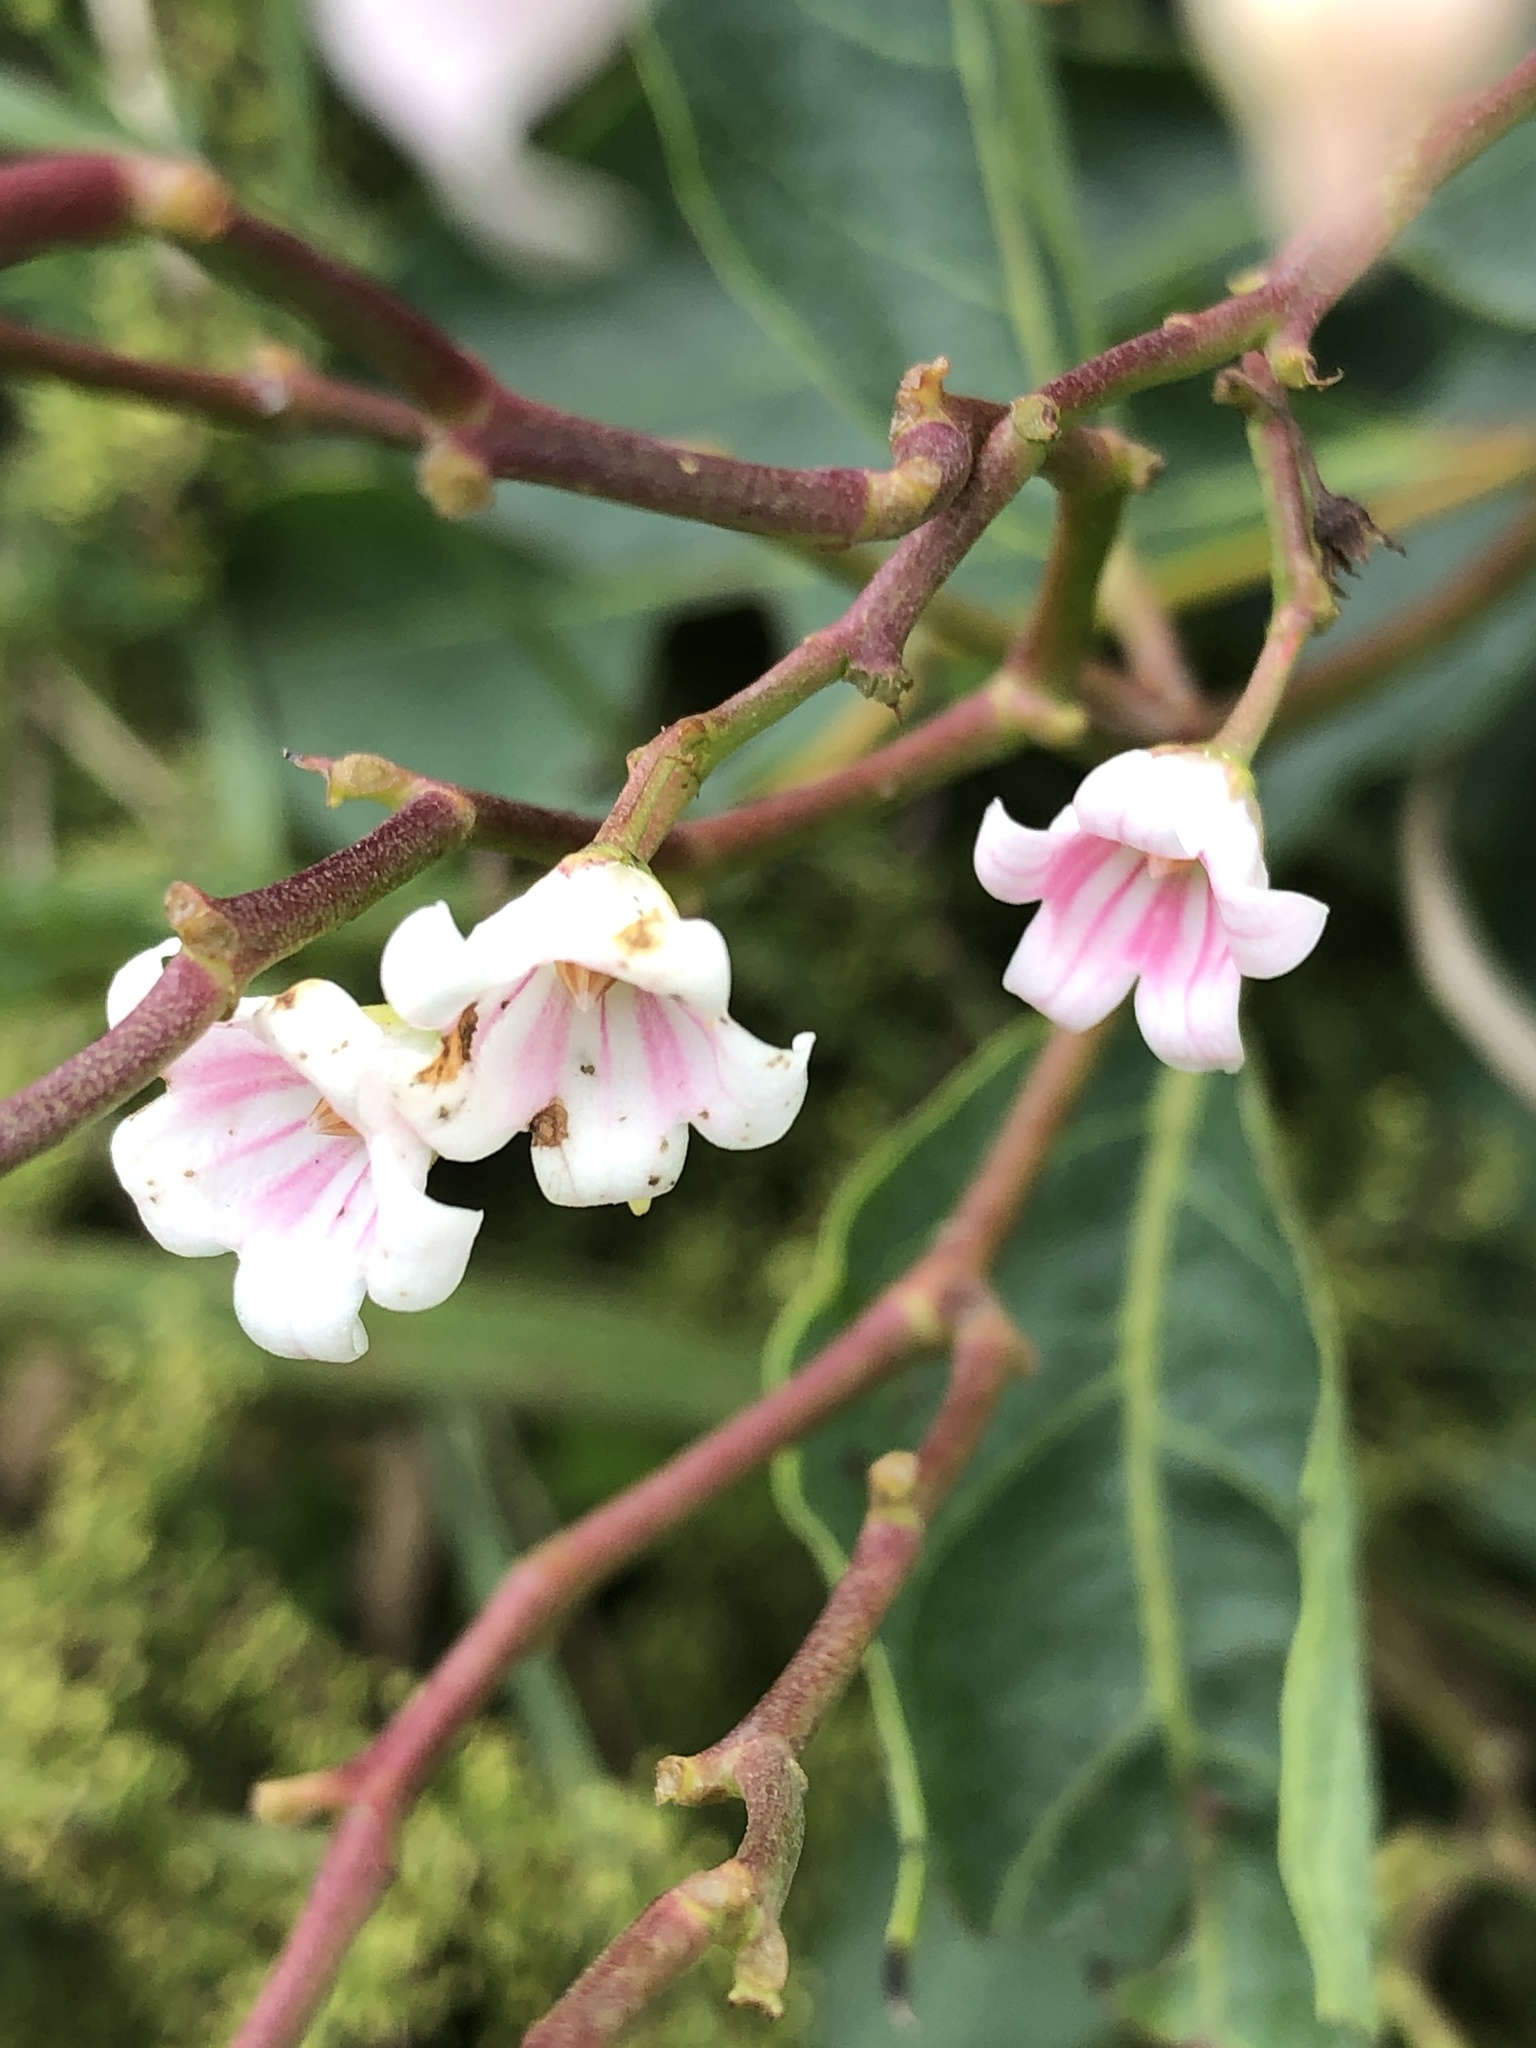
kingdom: Plantae
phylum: Tracheophyta
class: Magnoliopsida
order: Gentianales
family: Apocynaceae
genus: Apocynum
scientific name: Apocynum androsaemifolium
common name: Spreading dogbane
